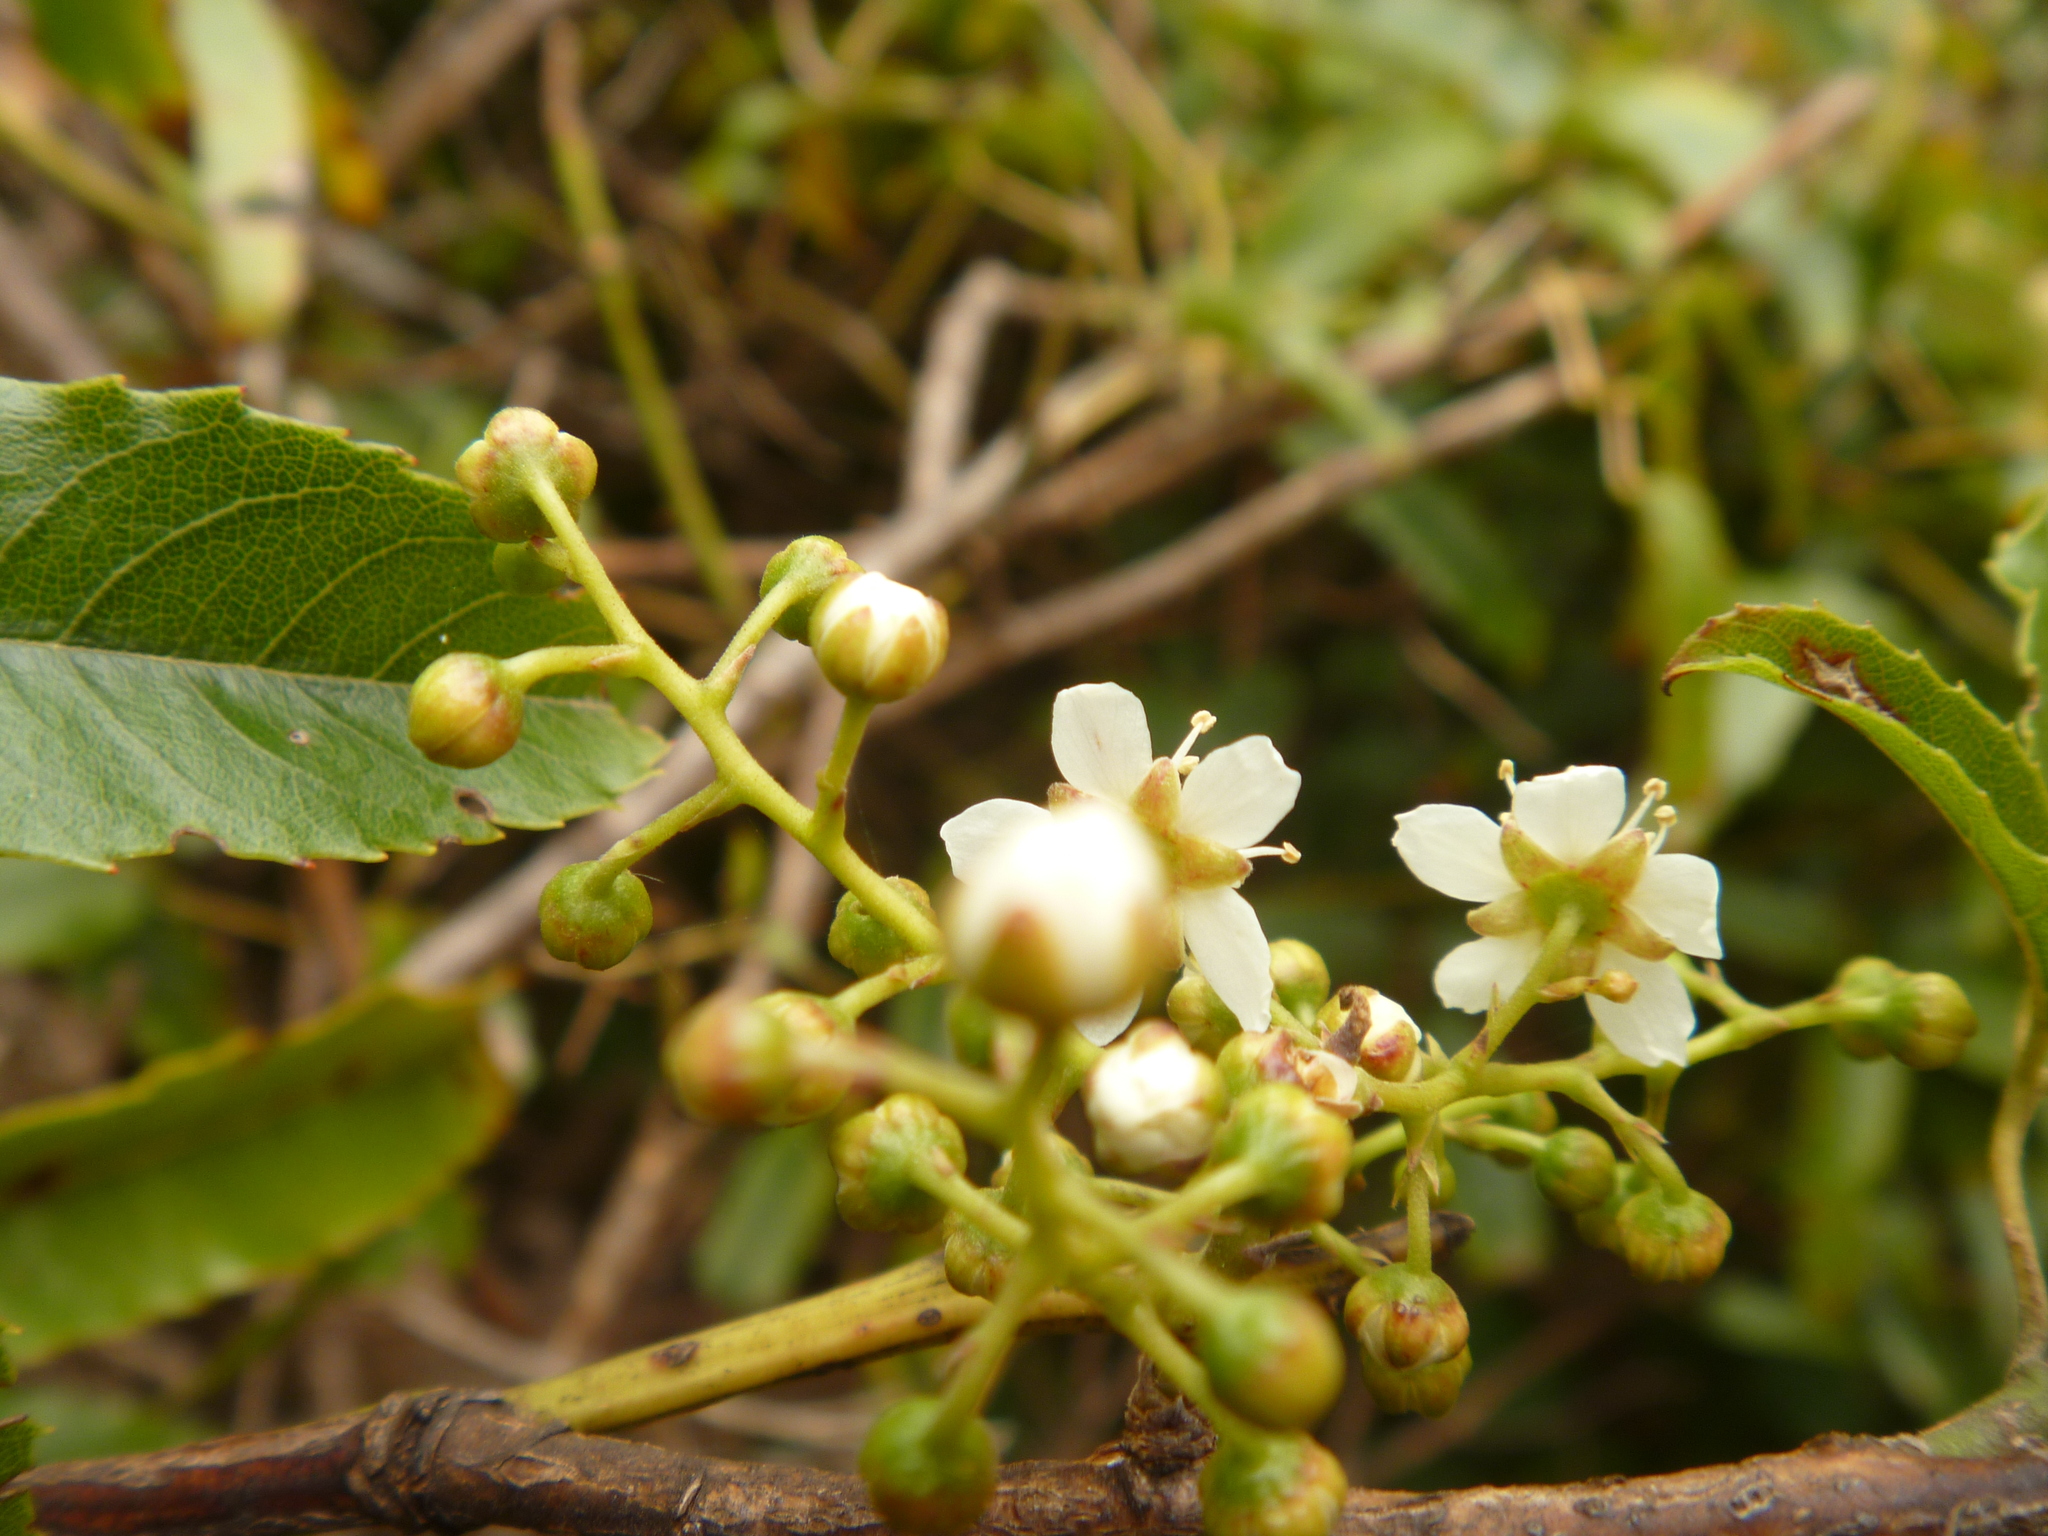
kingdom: Plantae
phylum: Tracheophyta
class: Magnoliopsida
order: Rosales
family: Rosaceae
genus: Rubus
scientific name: Rubus cissoides
